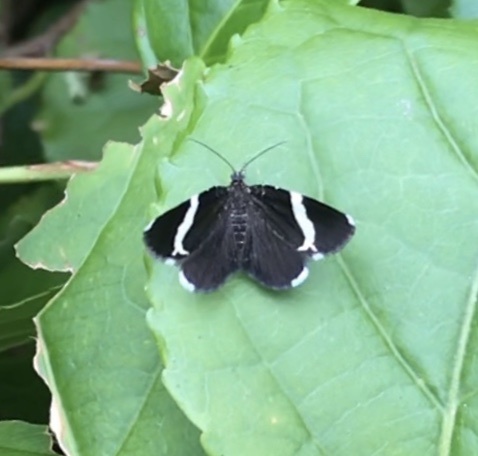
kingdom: Animalia
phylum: Arthropoda
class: Insecta
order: Lepidoptera
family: Geometridae
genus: Trichodezia
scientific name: Trichodezia albovittata
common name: White striped black
